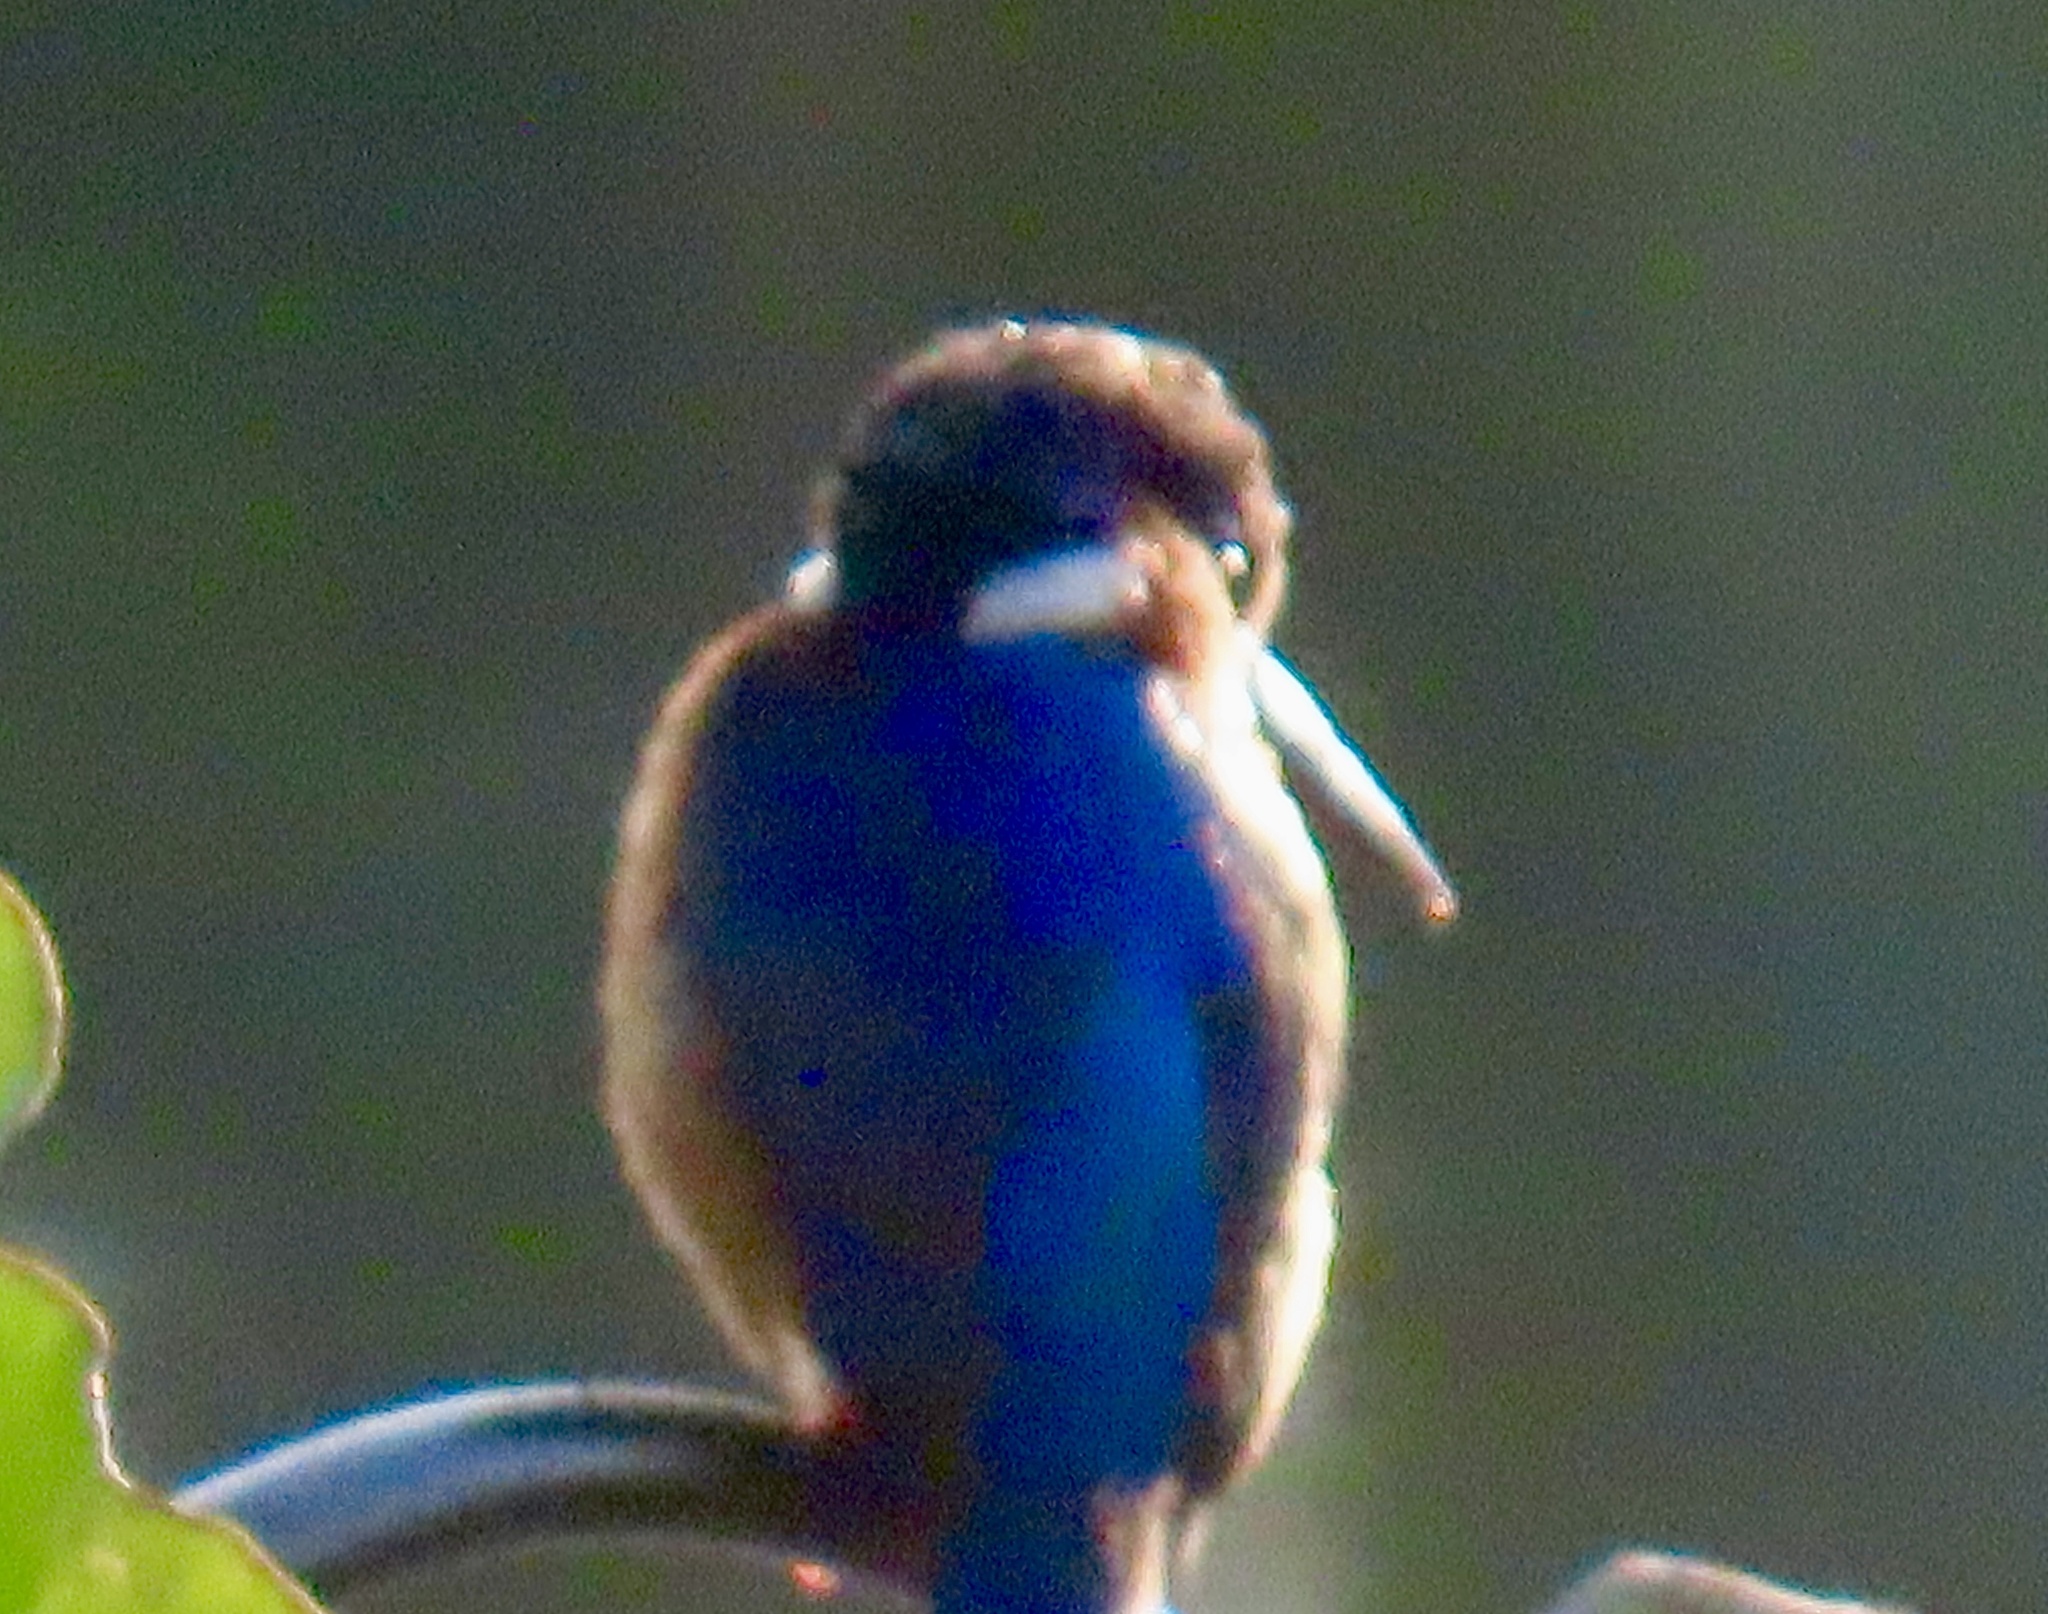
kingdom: Animalia
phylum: Chordata
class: Aves
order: Coraciiformes
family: Alcedinidae
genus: Corythornis
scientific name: Corythornis vintsioides
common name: Malagasy kingfisher
